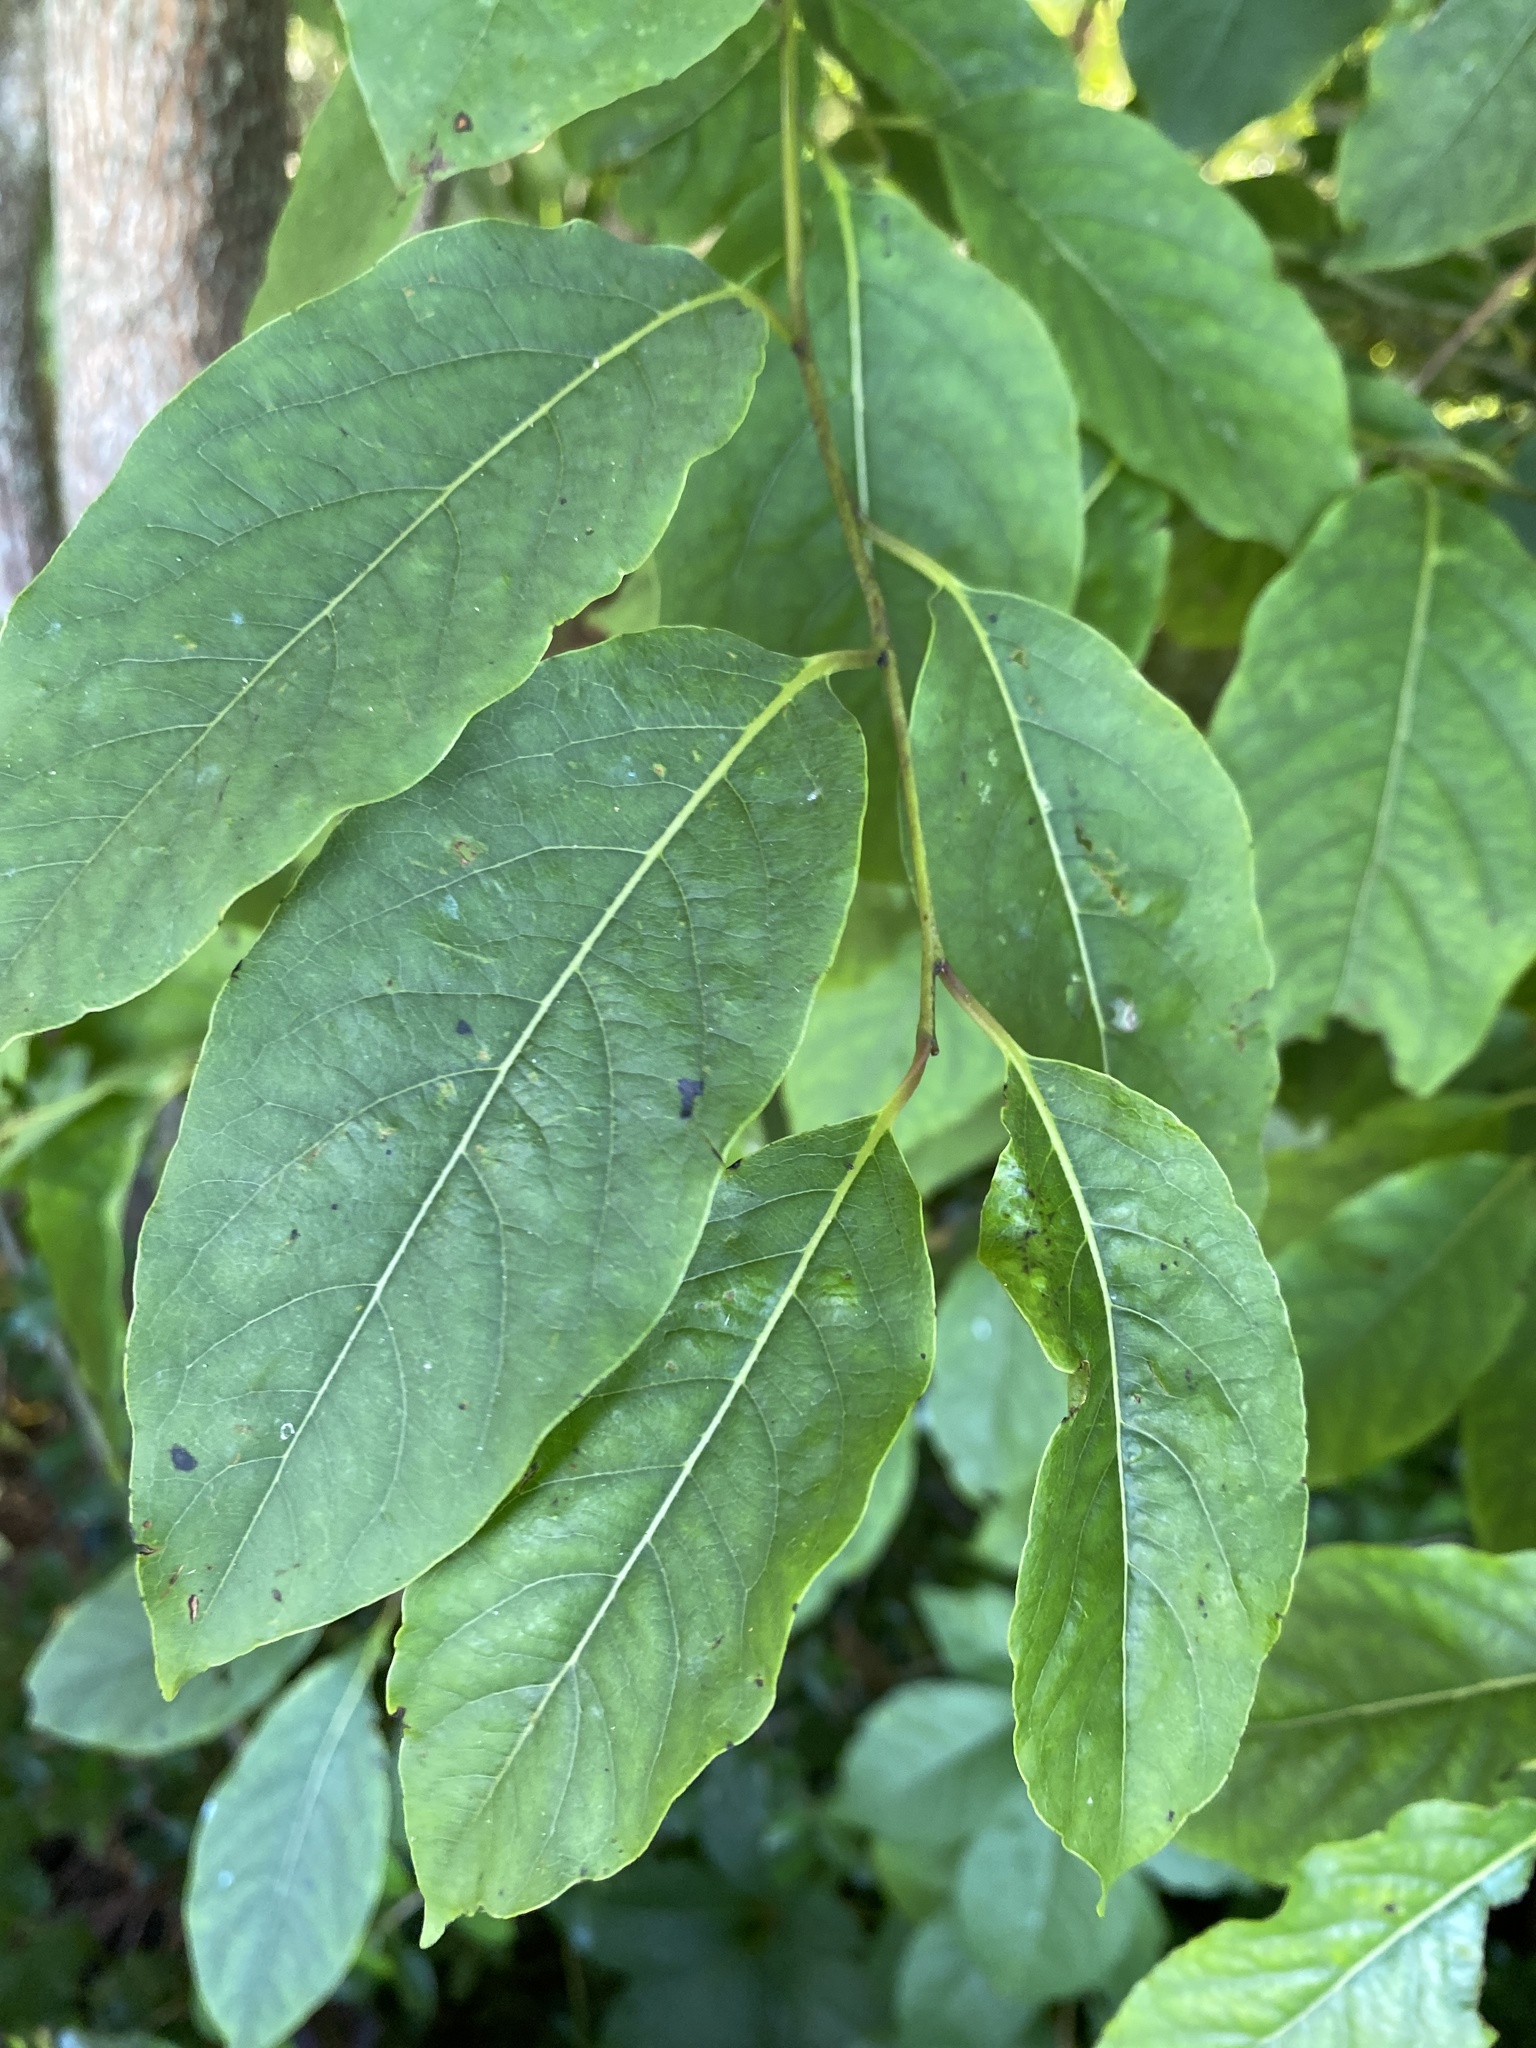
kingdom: Plantae
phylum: Tracheophyta
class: Magnoliopsida
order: Ericales
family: Ebenaceae
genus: Diospyros
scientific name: Diospyros virginiana
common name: Persimmon
